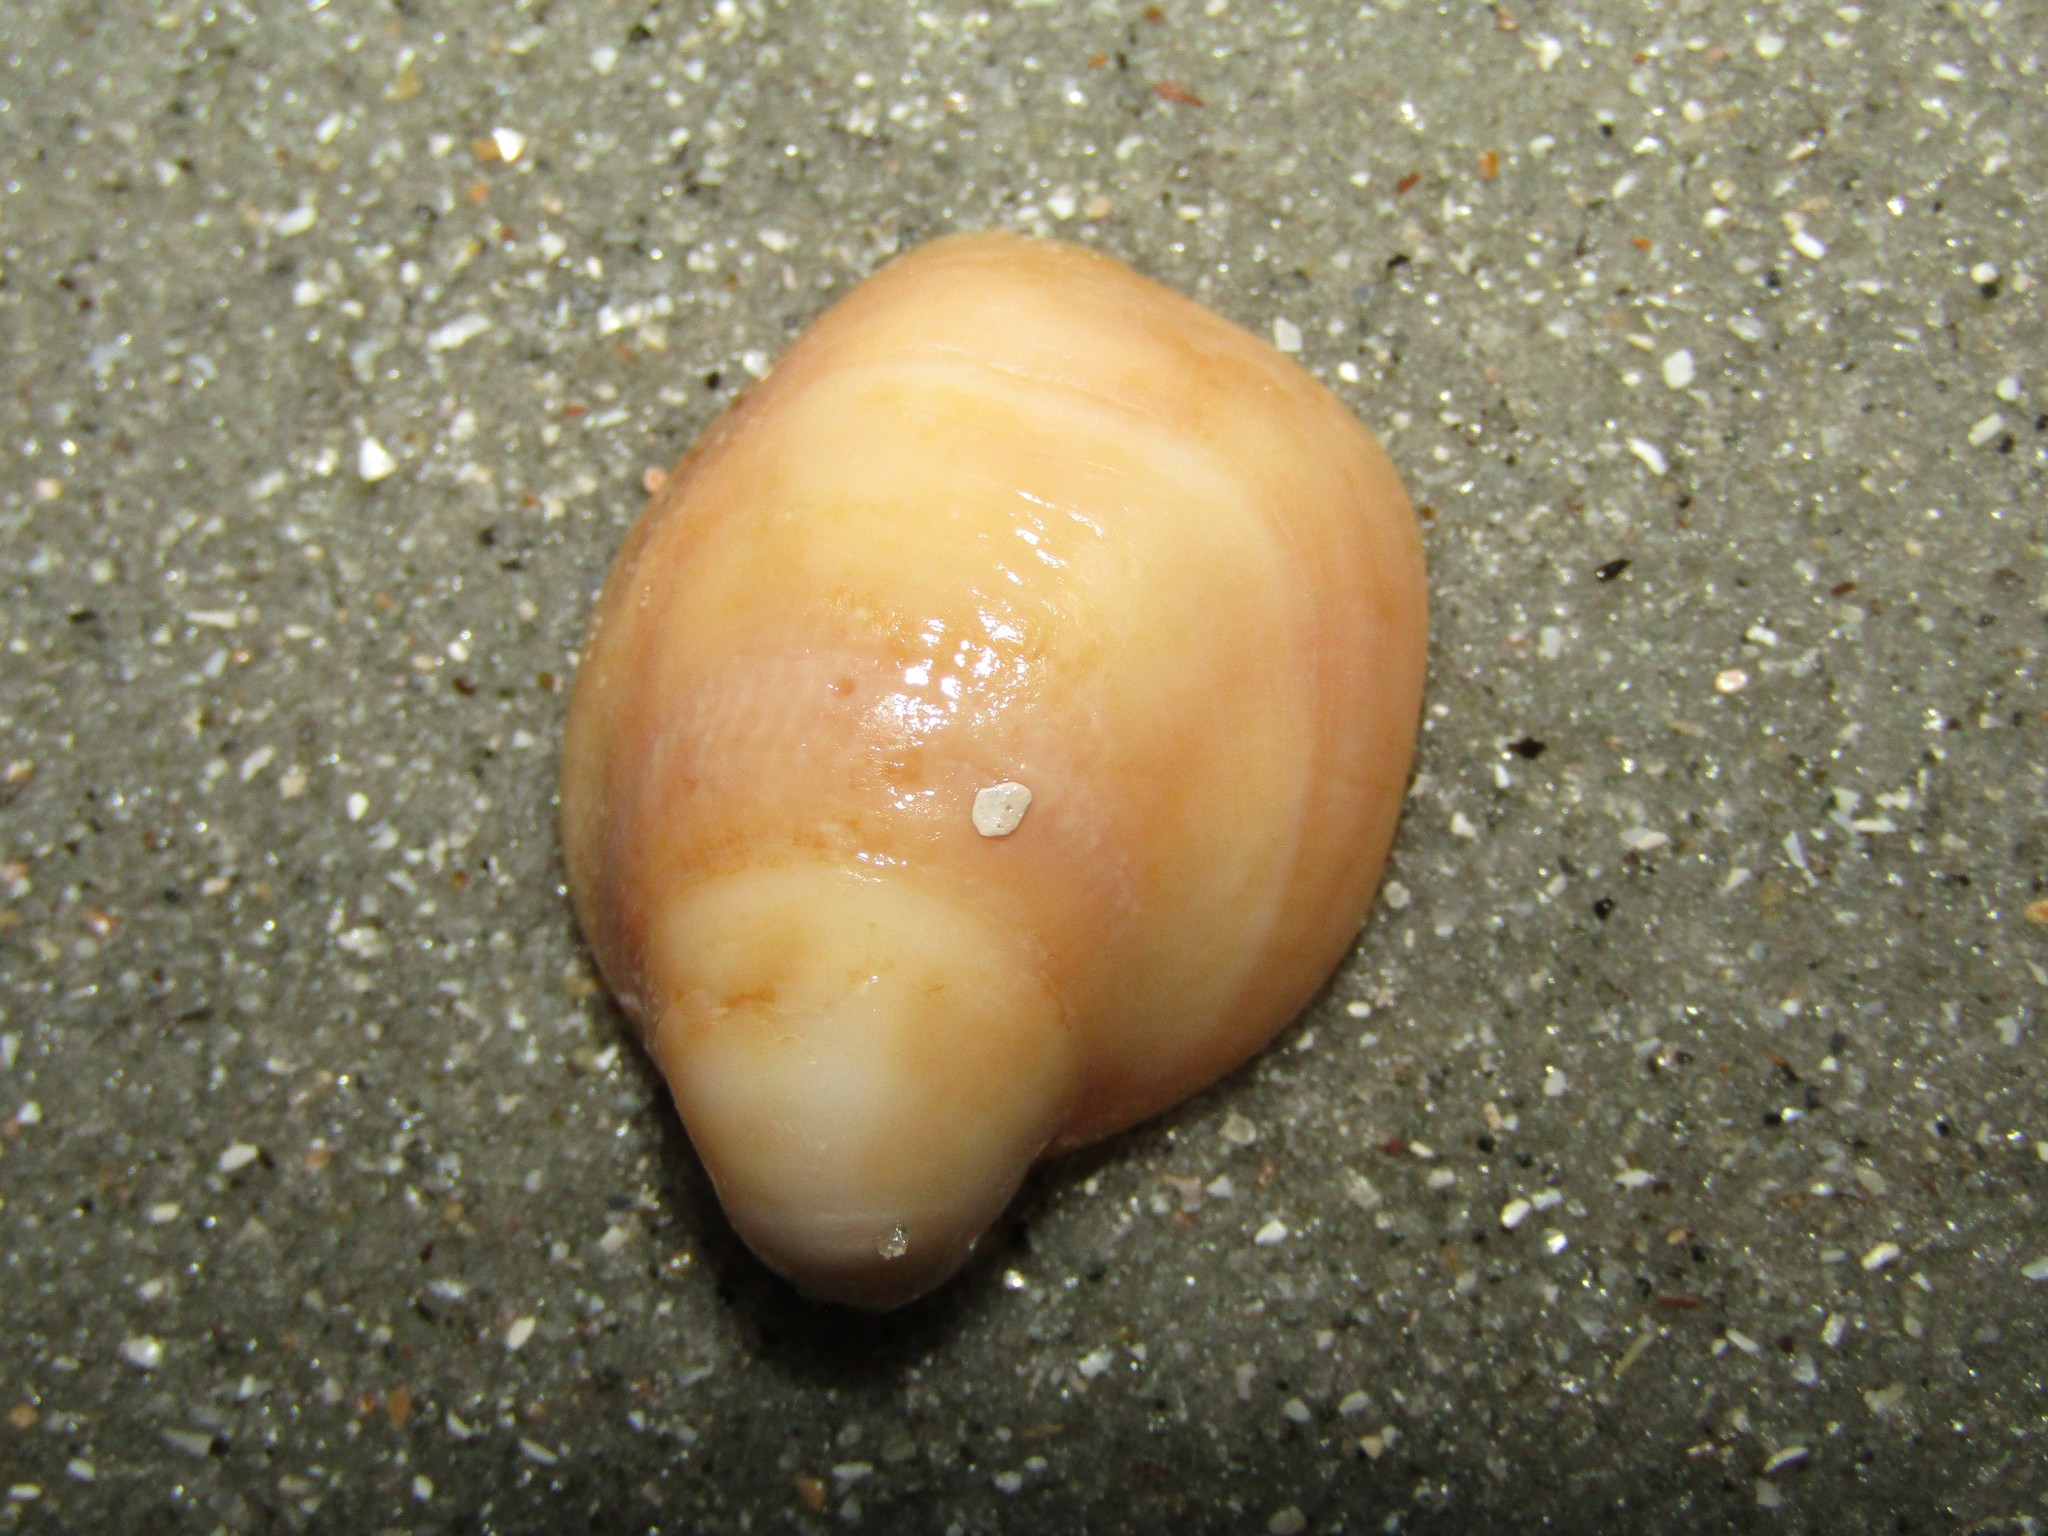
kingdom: Animalia
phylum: Mollusca
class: Gastropoda
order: Littorinimorpha
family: Calyptraeidae
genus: Crepidula
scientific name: Crepidula fornicata
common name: Slipper limpet
